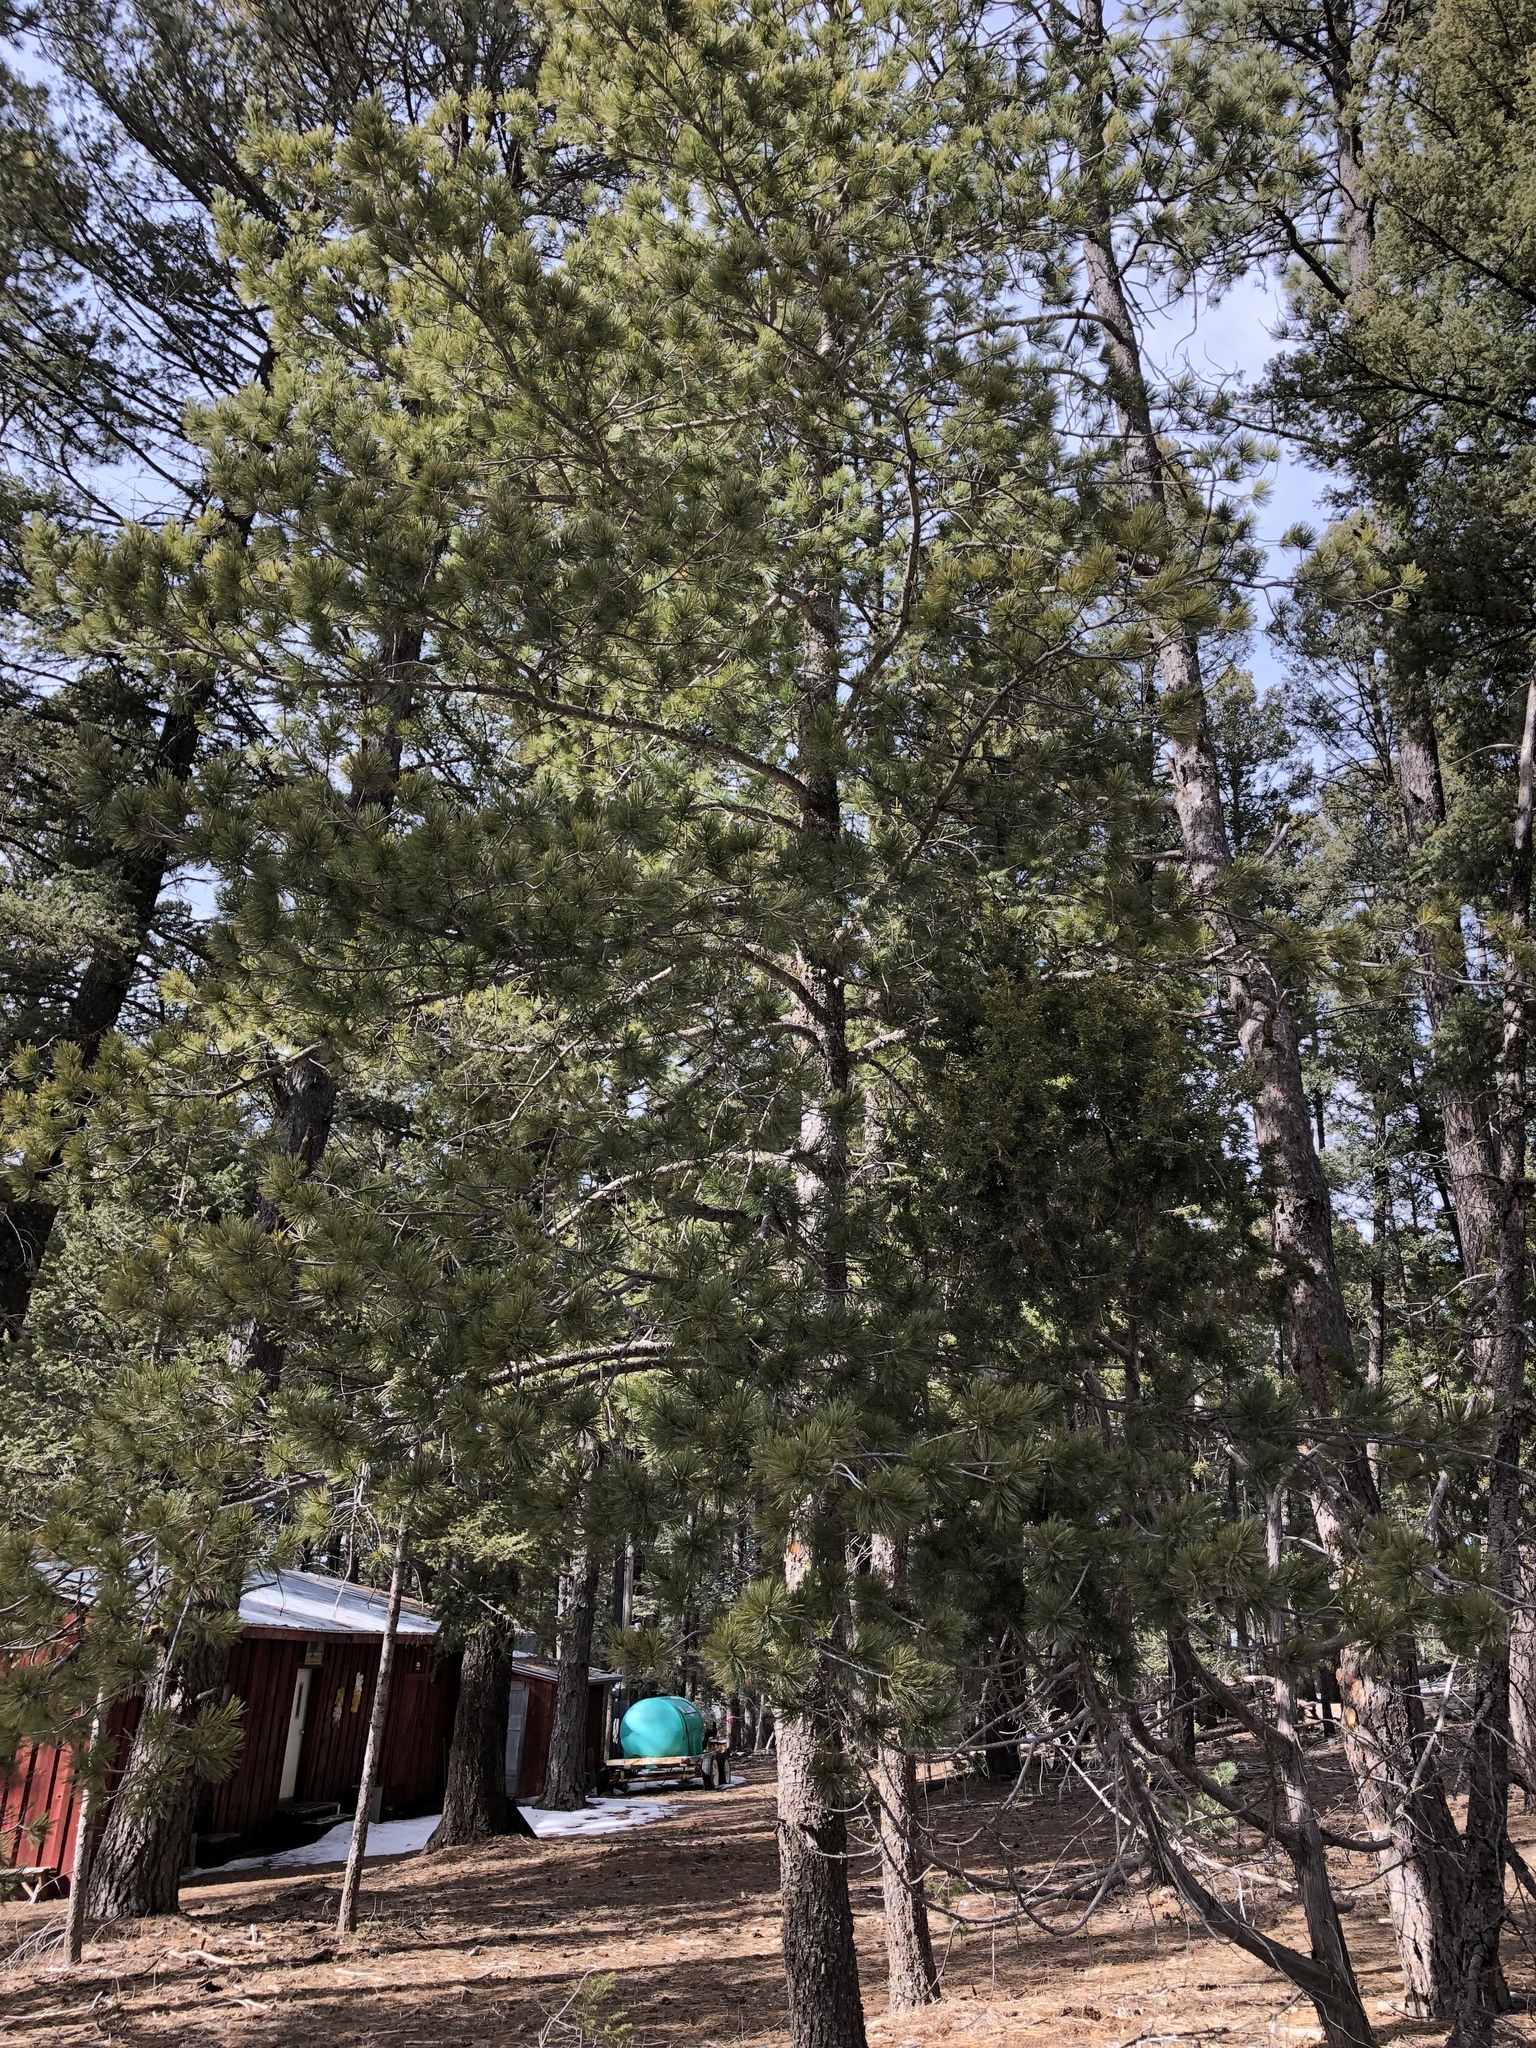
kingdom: Plantae
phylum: Tracheophyta
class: Pinopsida
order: Pinales
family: Pinaceae
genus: Pinus
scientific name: Pinus strobiformis
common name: Southwestern white pine
